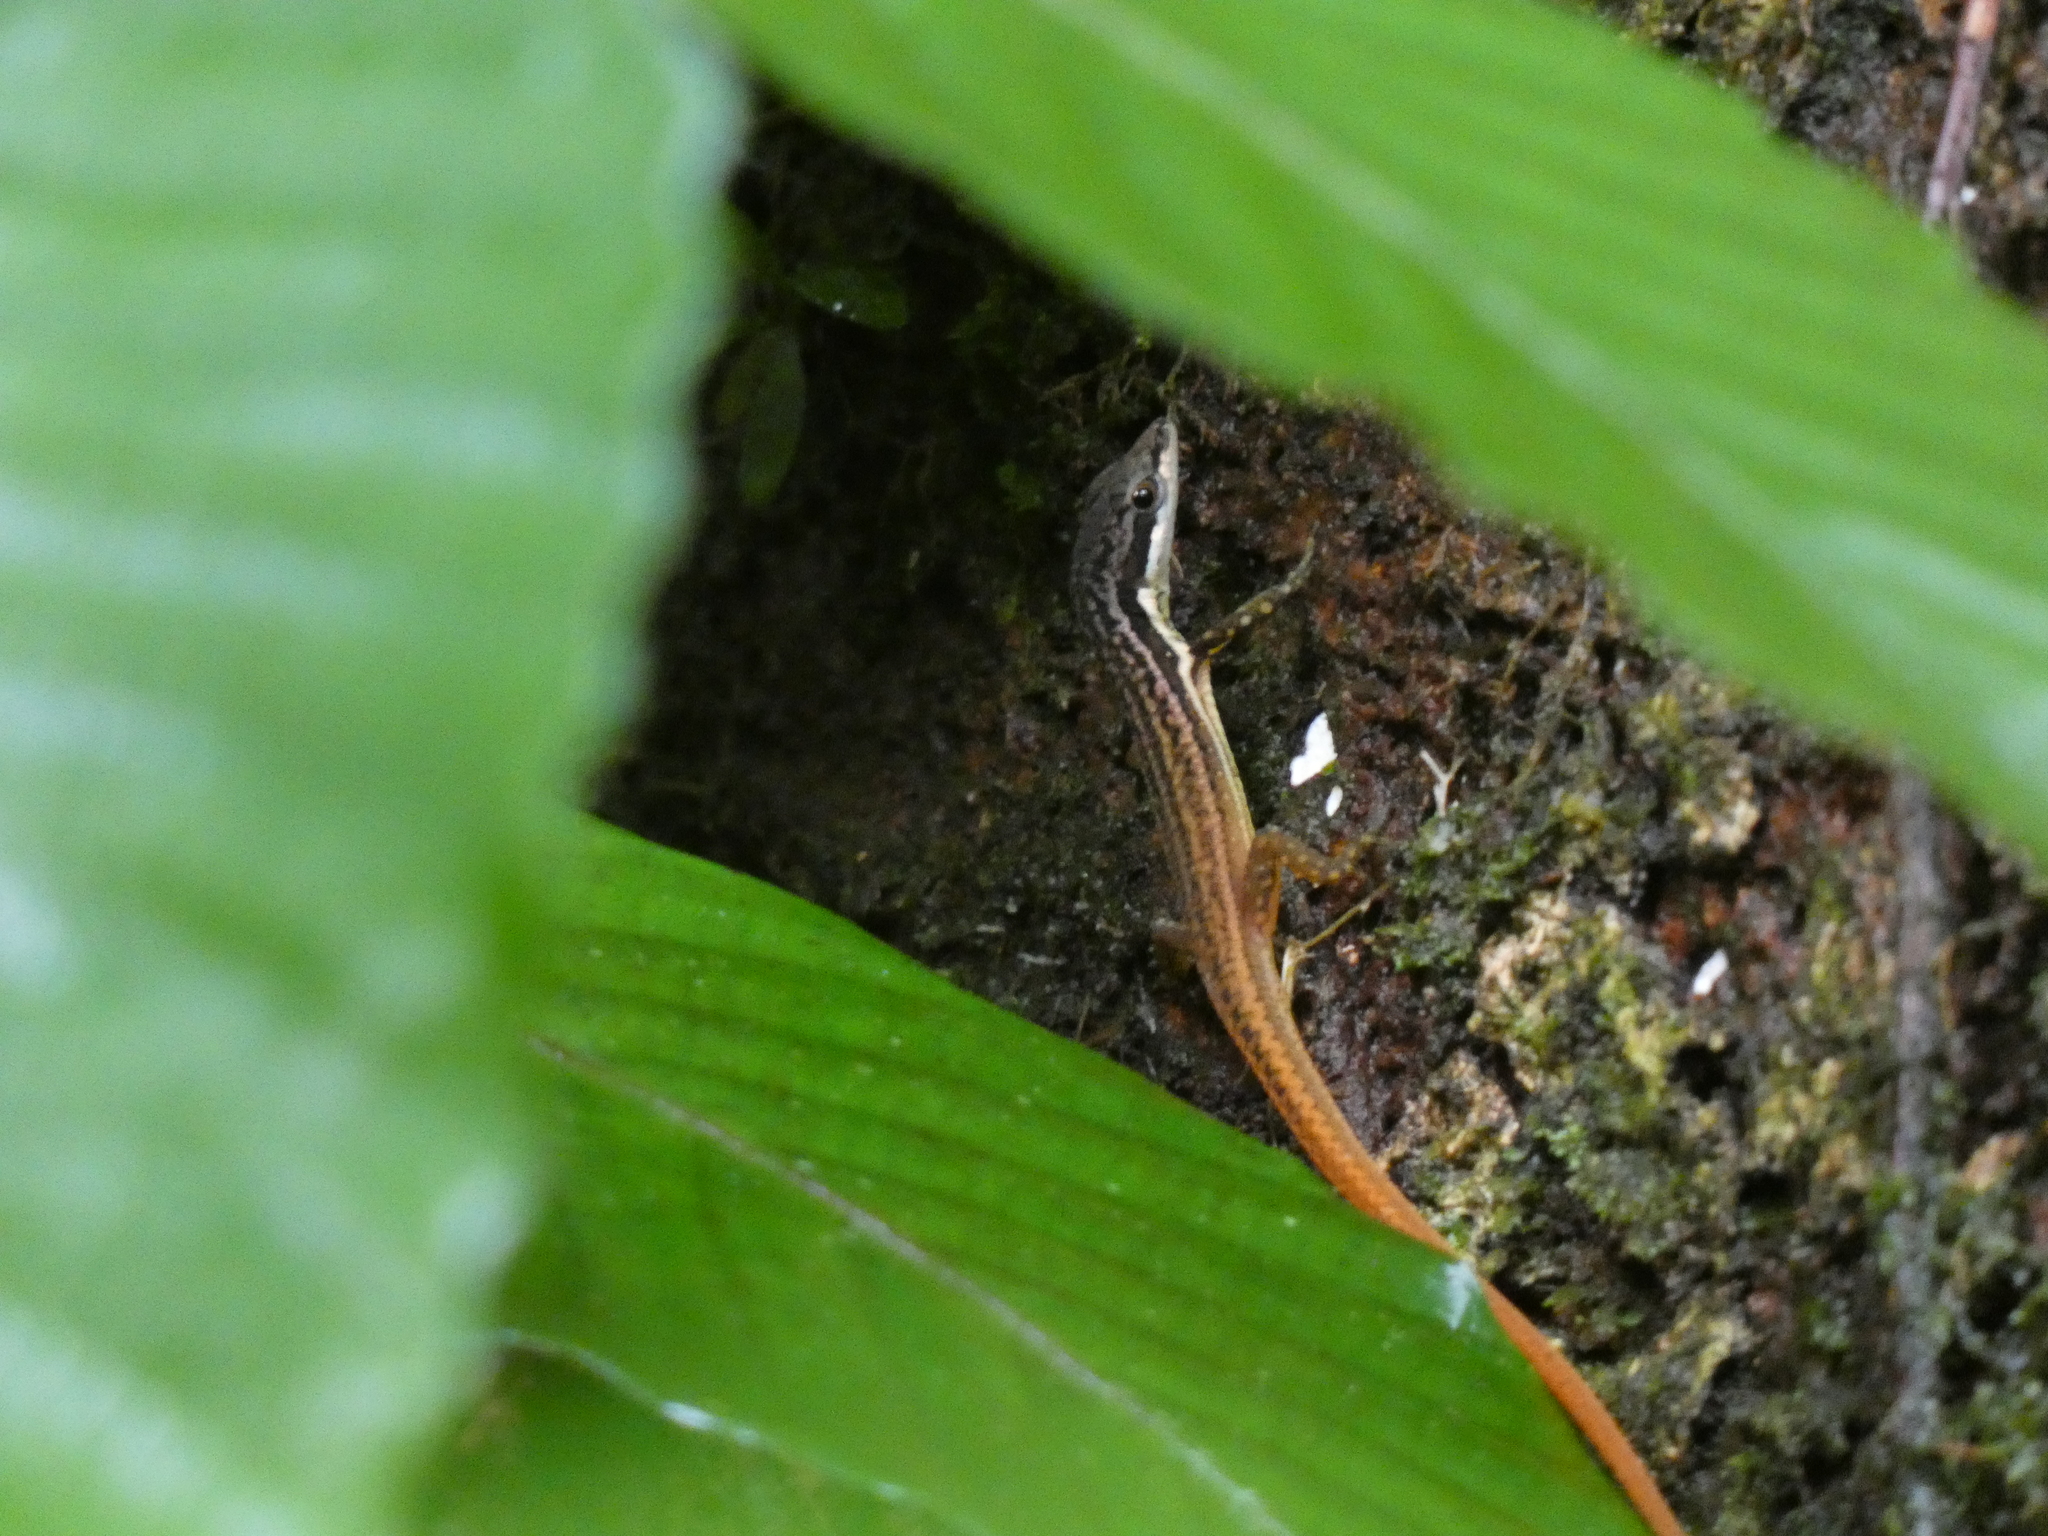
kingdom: Animalia
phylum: Chordata
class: Squamata
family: Gymnophthalmidae
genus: Cercosaura
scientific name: Cercosaura argulus
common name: White-lipped cercosaura
